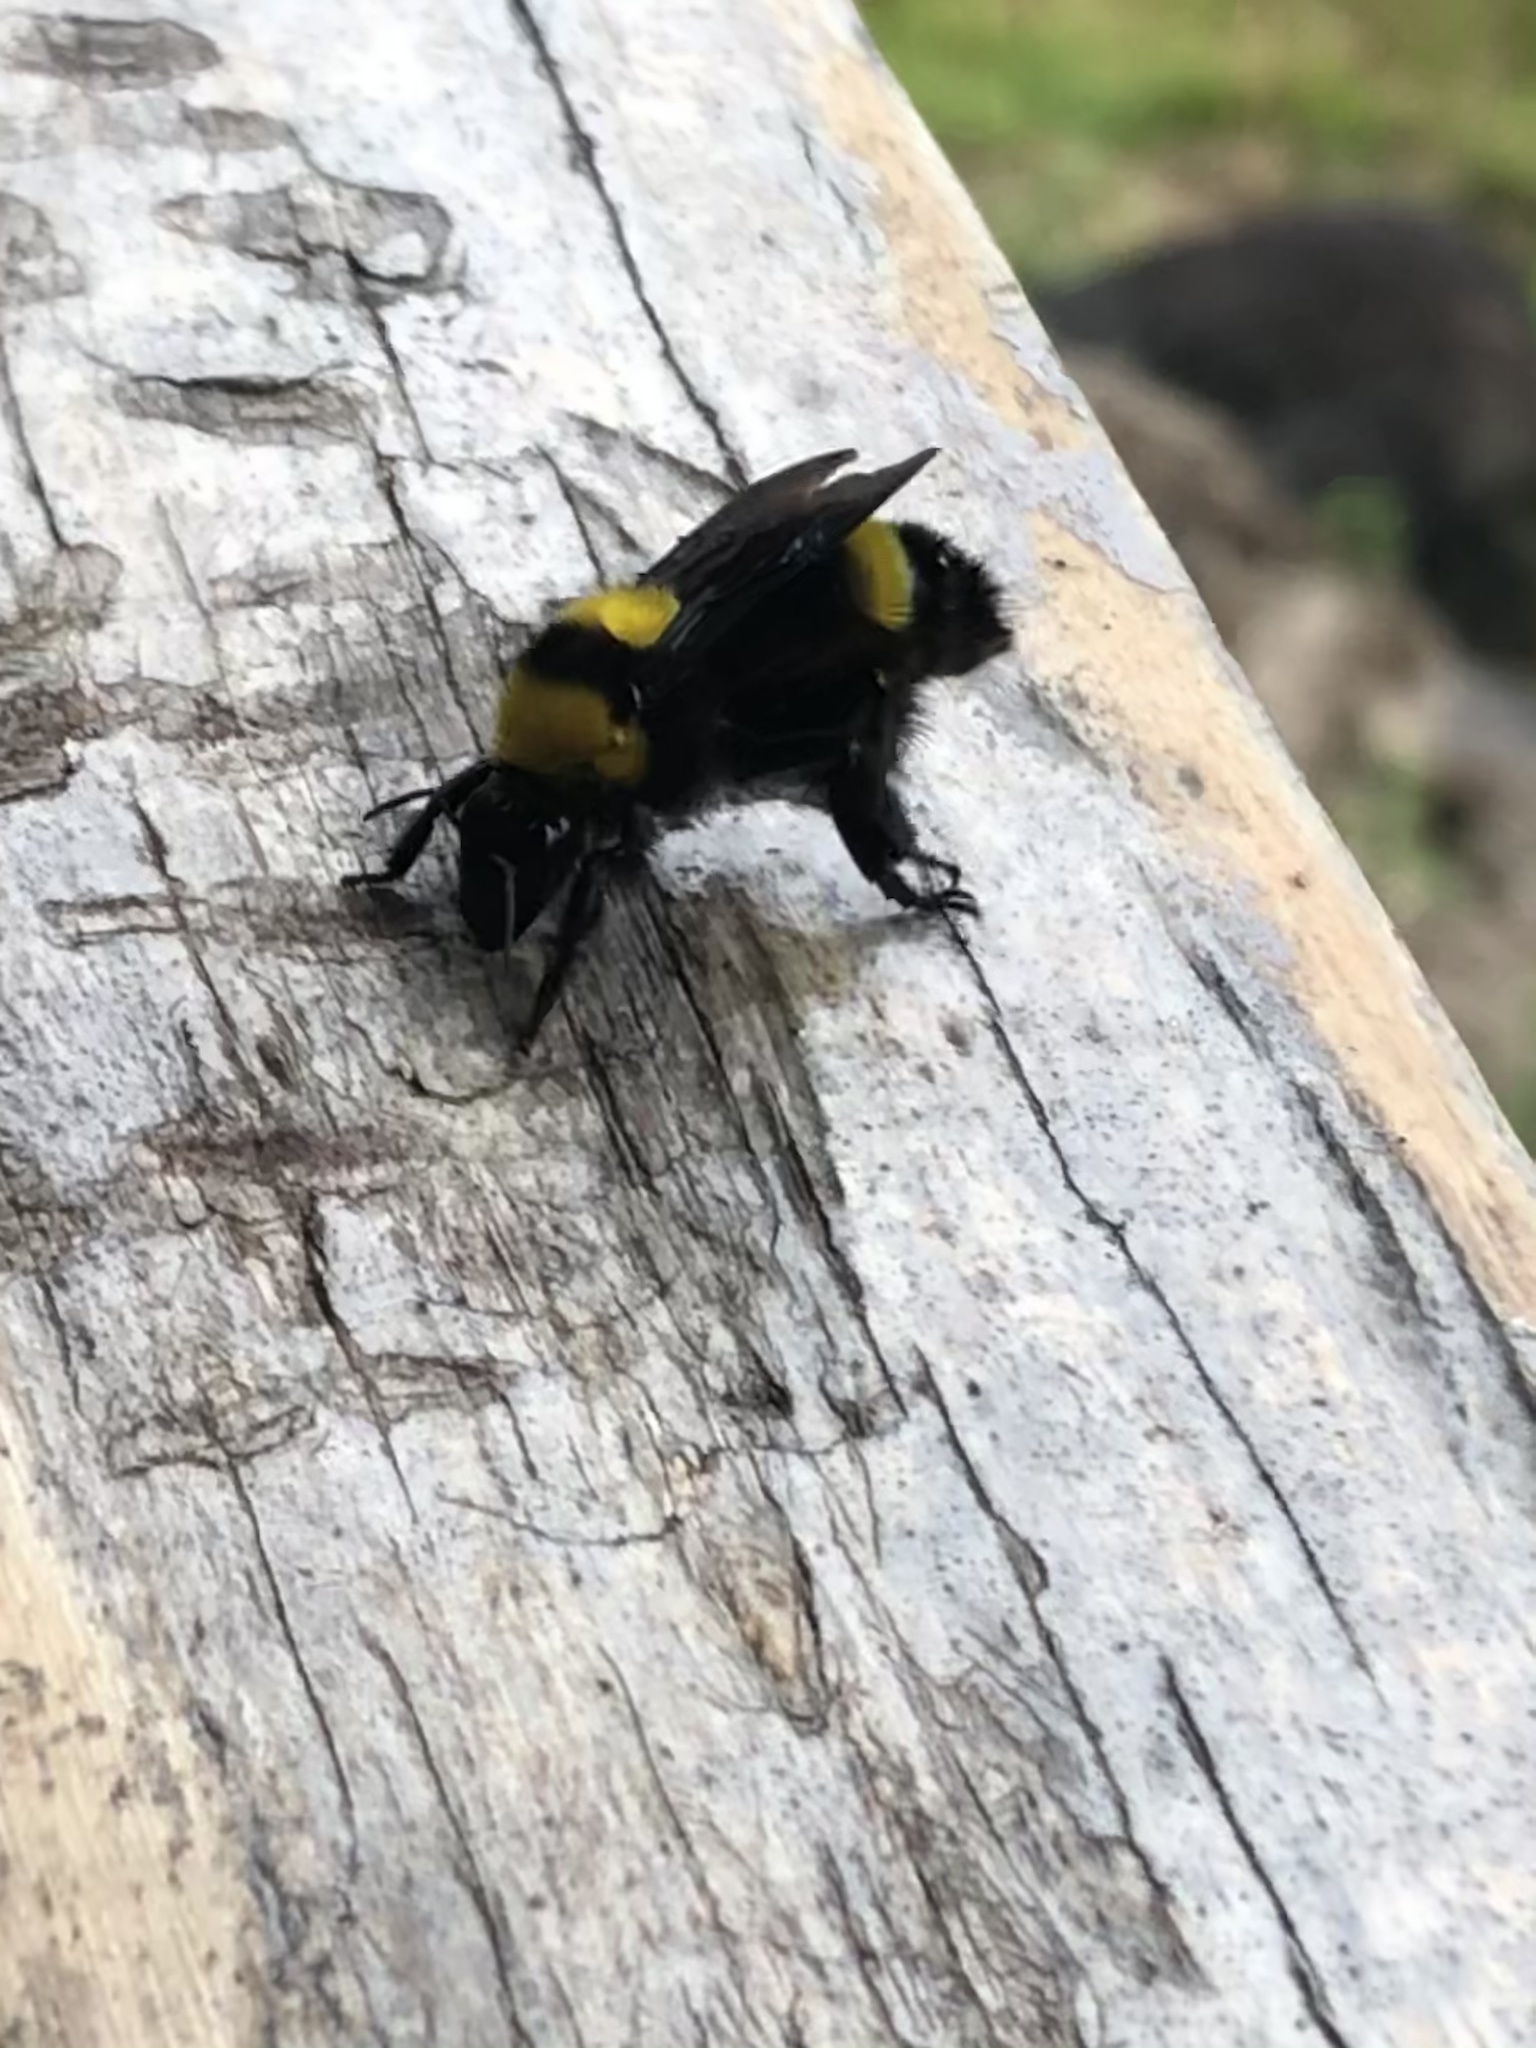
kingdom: Animalia
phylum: Arthropoda
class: Insecta
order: Hymenoptera
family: Apidae
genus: Bombus
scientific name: Bombus transversalis
